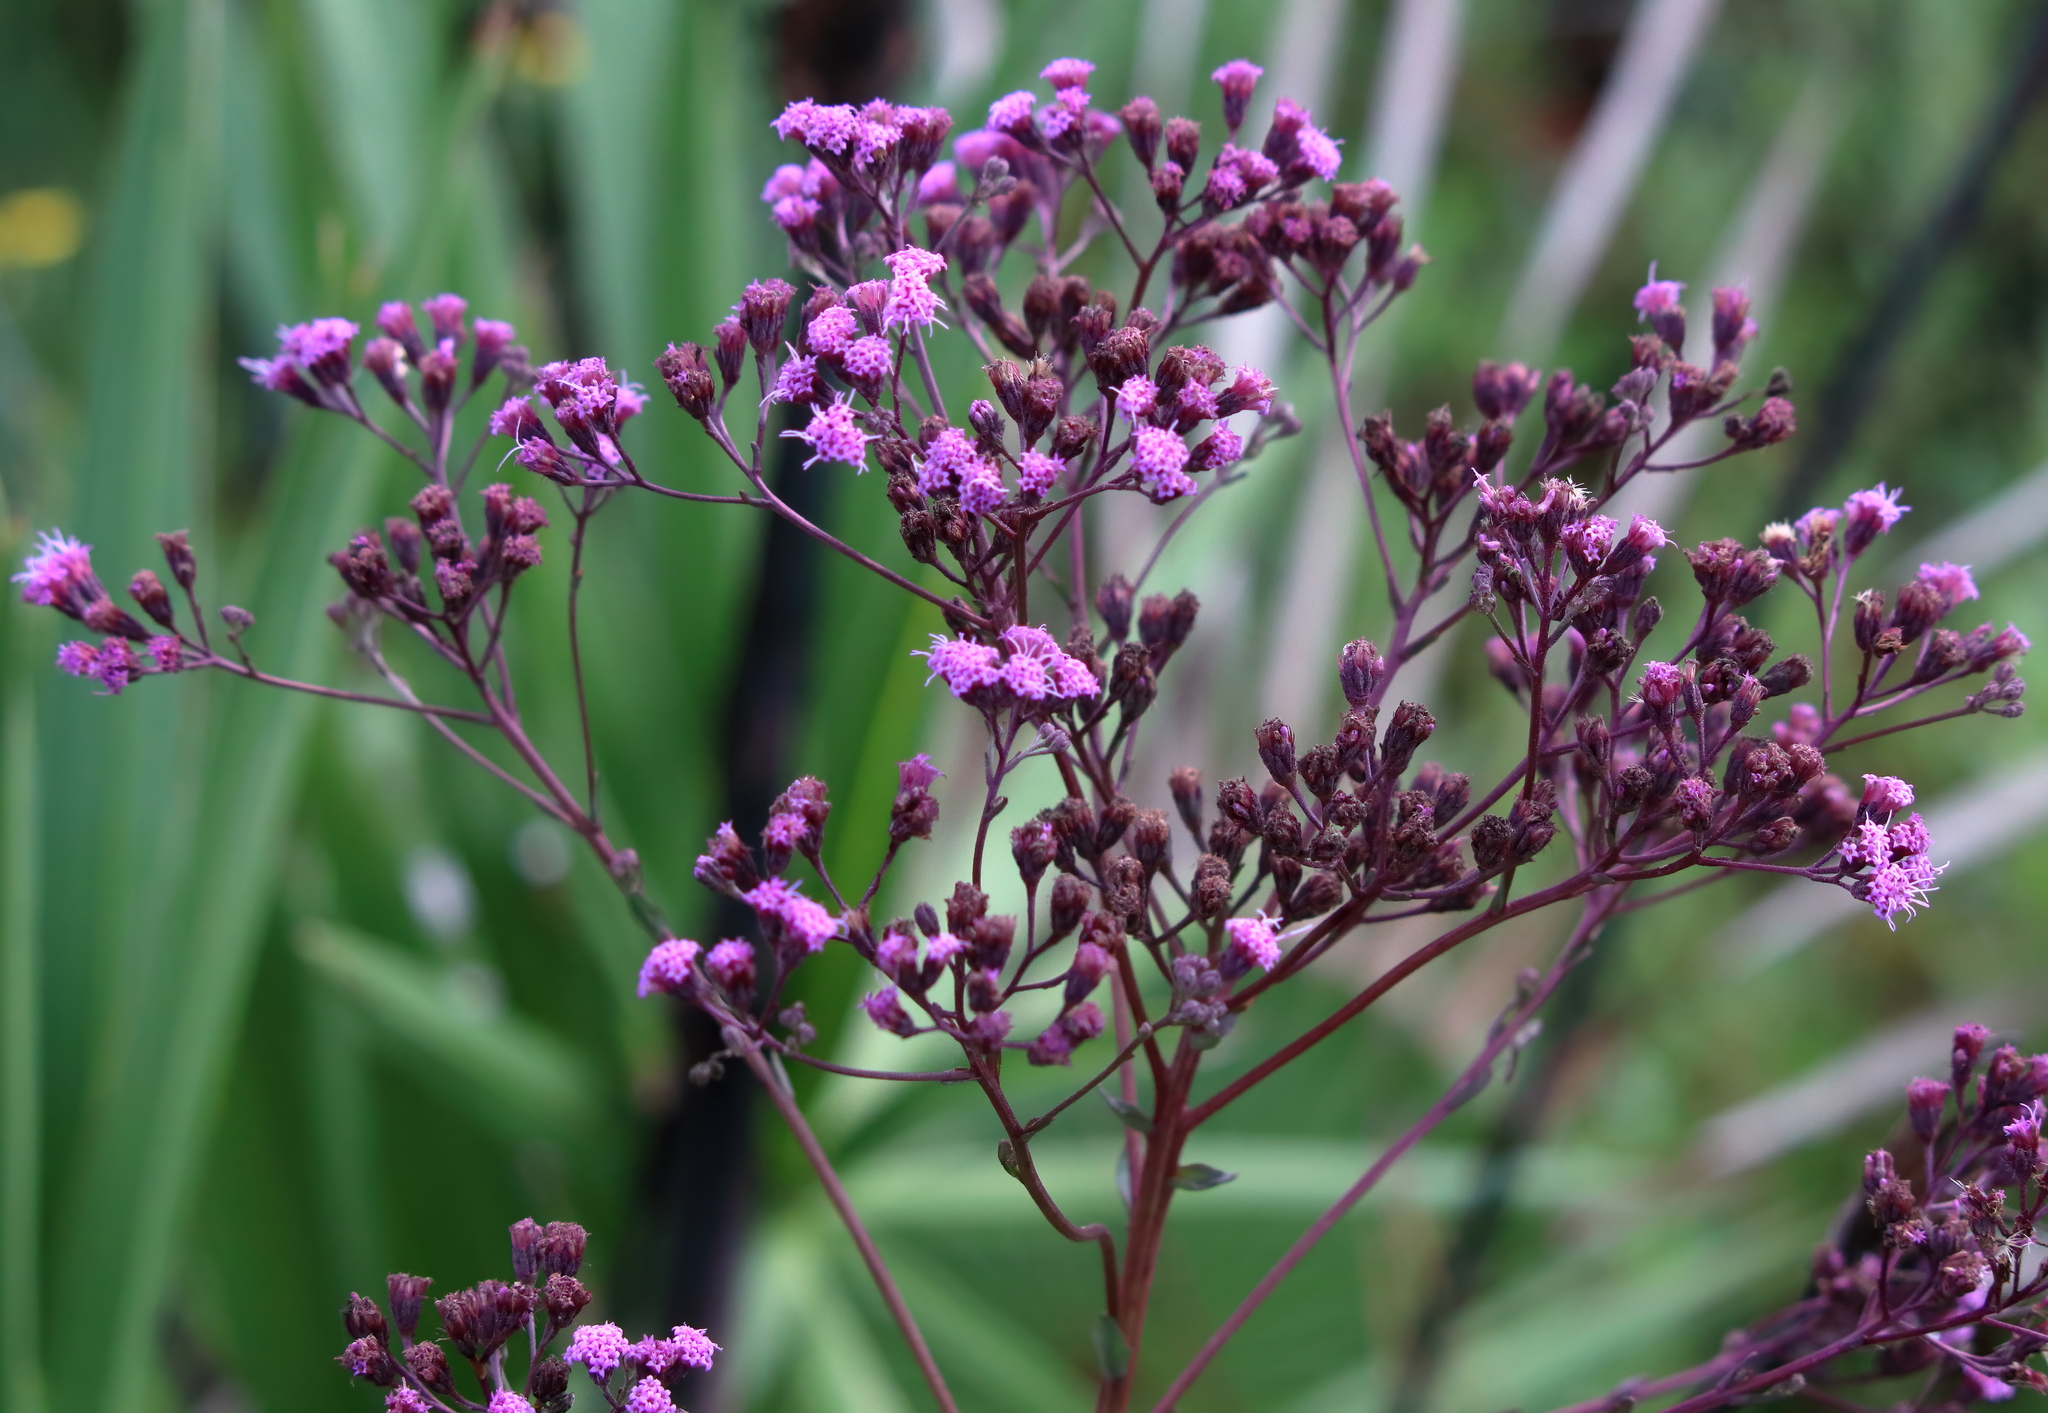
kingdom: Plantae
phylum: Tracheophyta
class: Magnoliopsida
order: Asterales
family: Asteraceae
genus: Carphephorus
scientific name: Carphephorus odoratissimus
